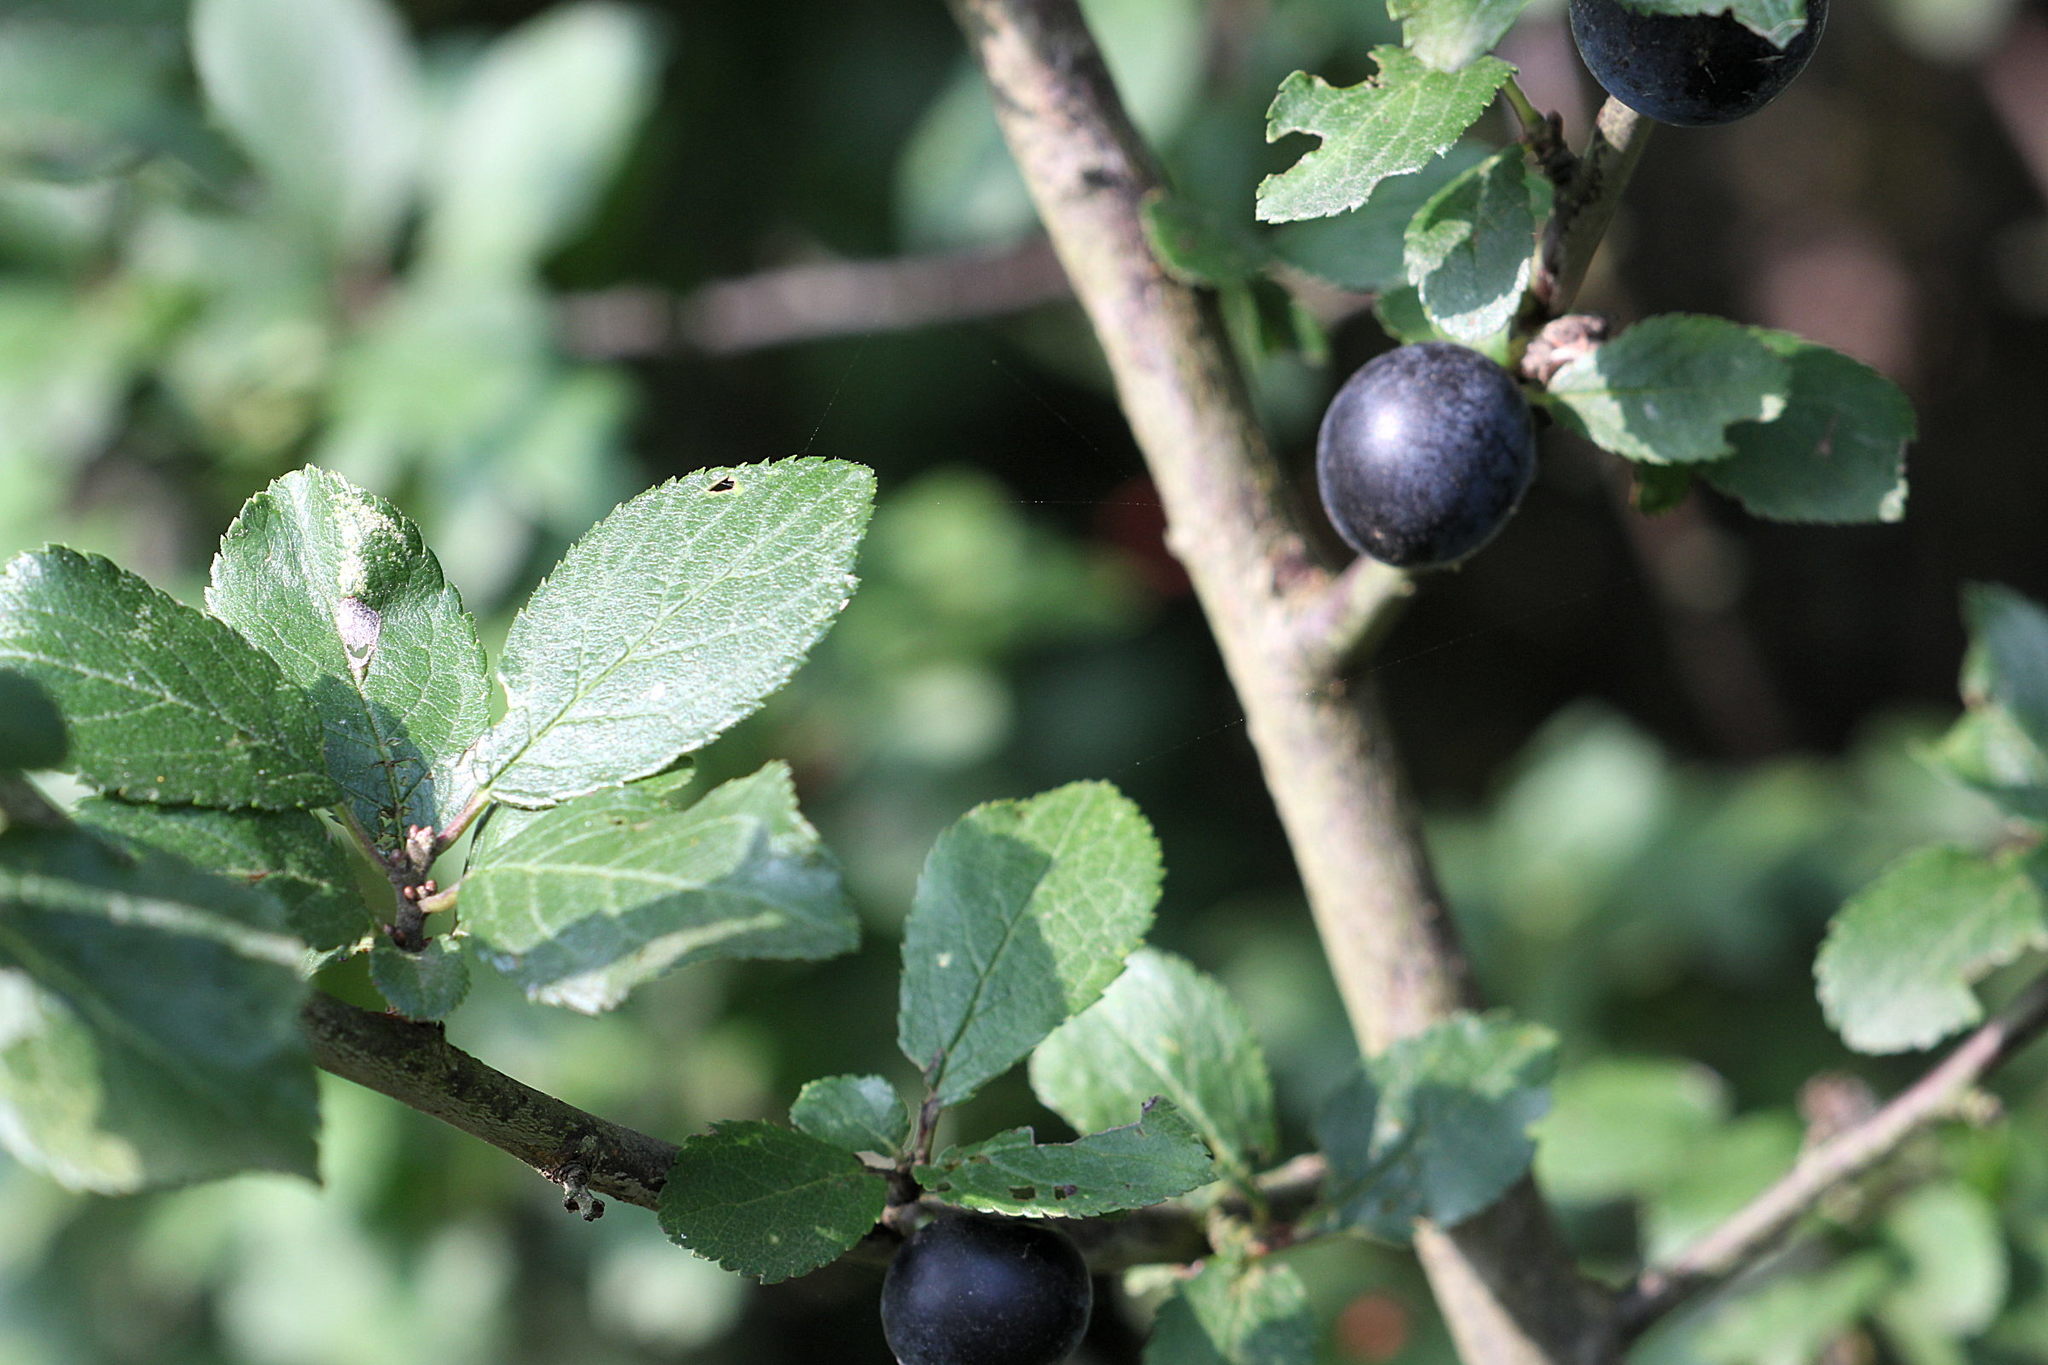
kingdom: Plantae
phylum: Tracheophyta
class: Magnoliopsida
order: Rosales
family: Rosaceae
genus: Prunus
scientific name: Prunus spinosa
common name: Blackthorn
